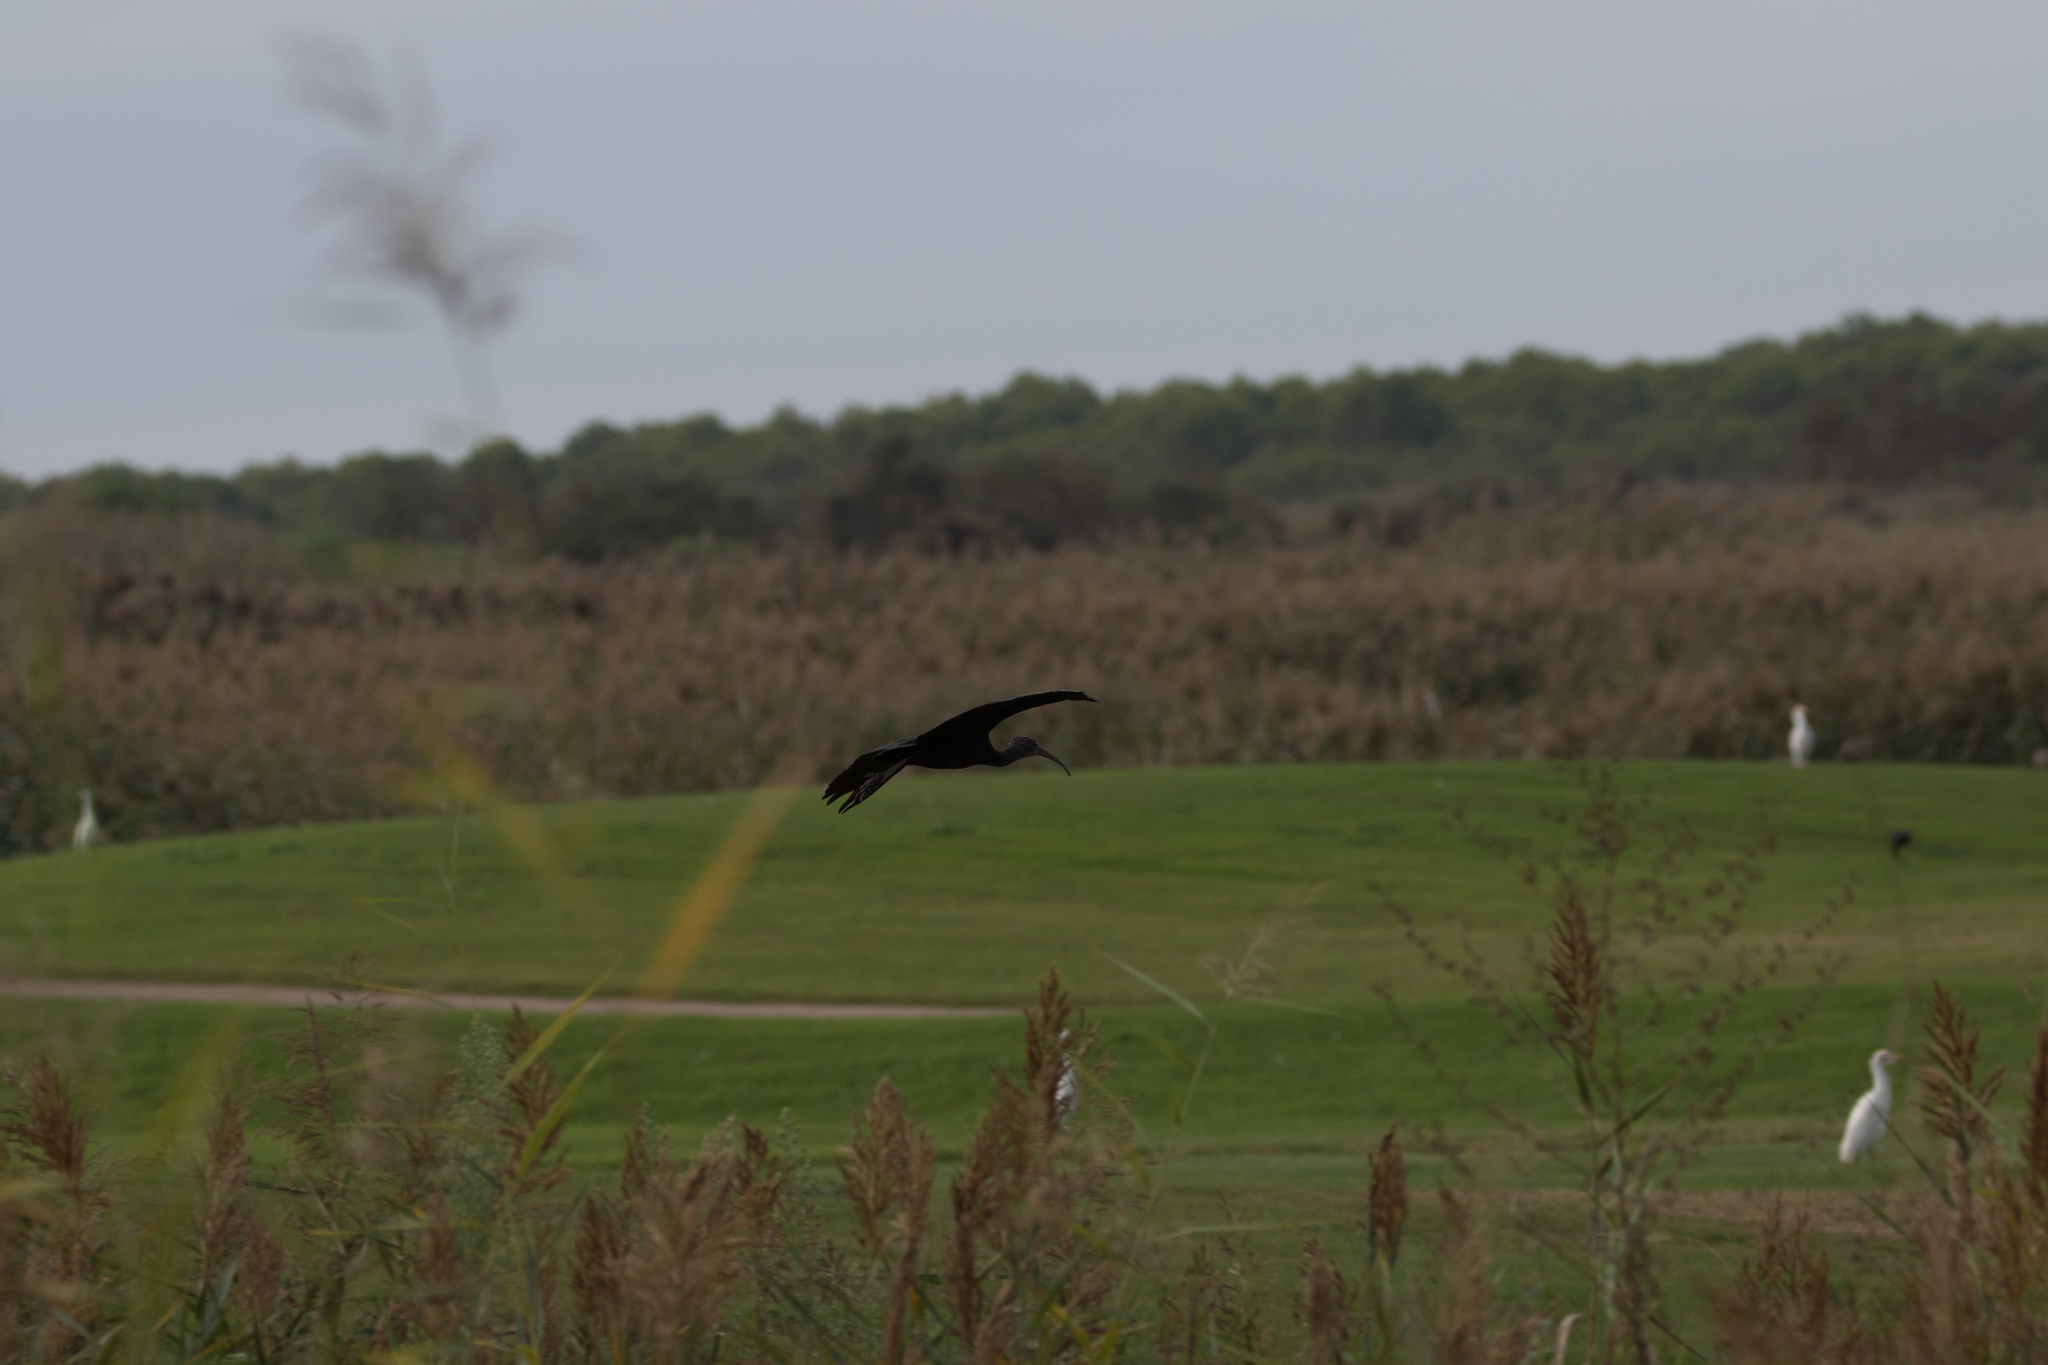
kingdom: Animalia
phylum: Chordata
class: Aves
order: Pelecaniformes
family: Threskiornithidae
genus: Plegadis
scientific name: Plegadis falcinellus
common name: Glossy ibis
